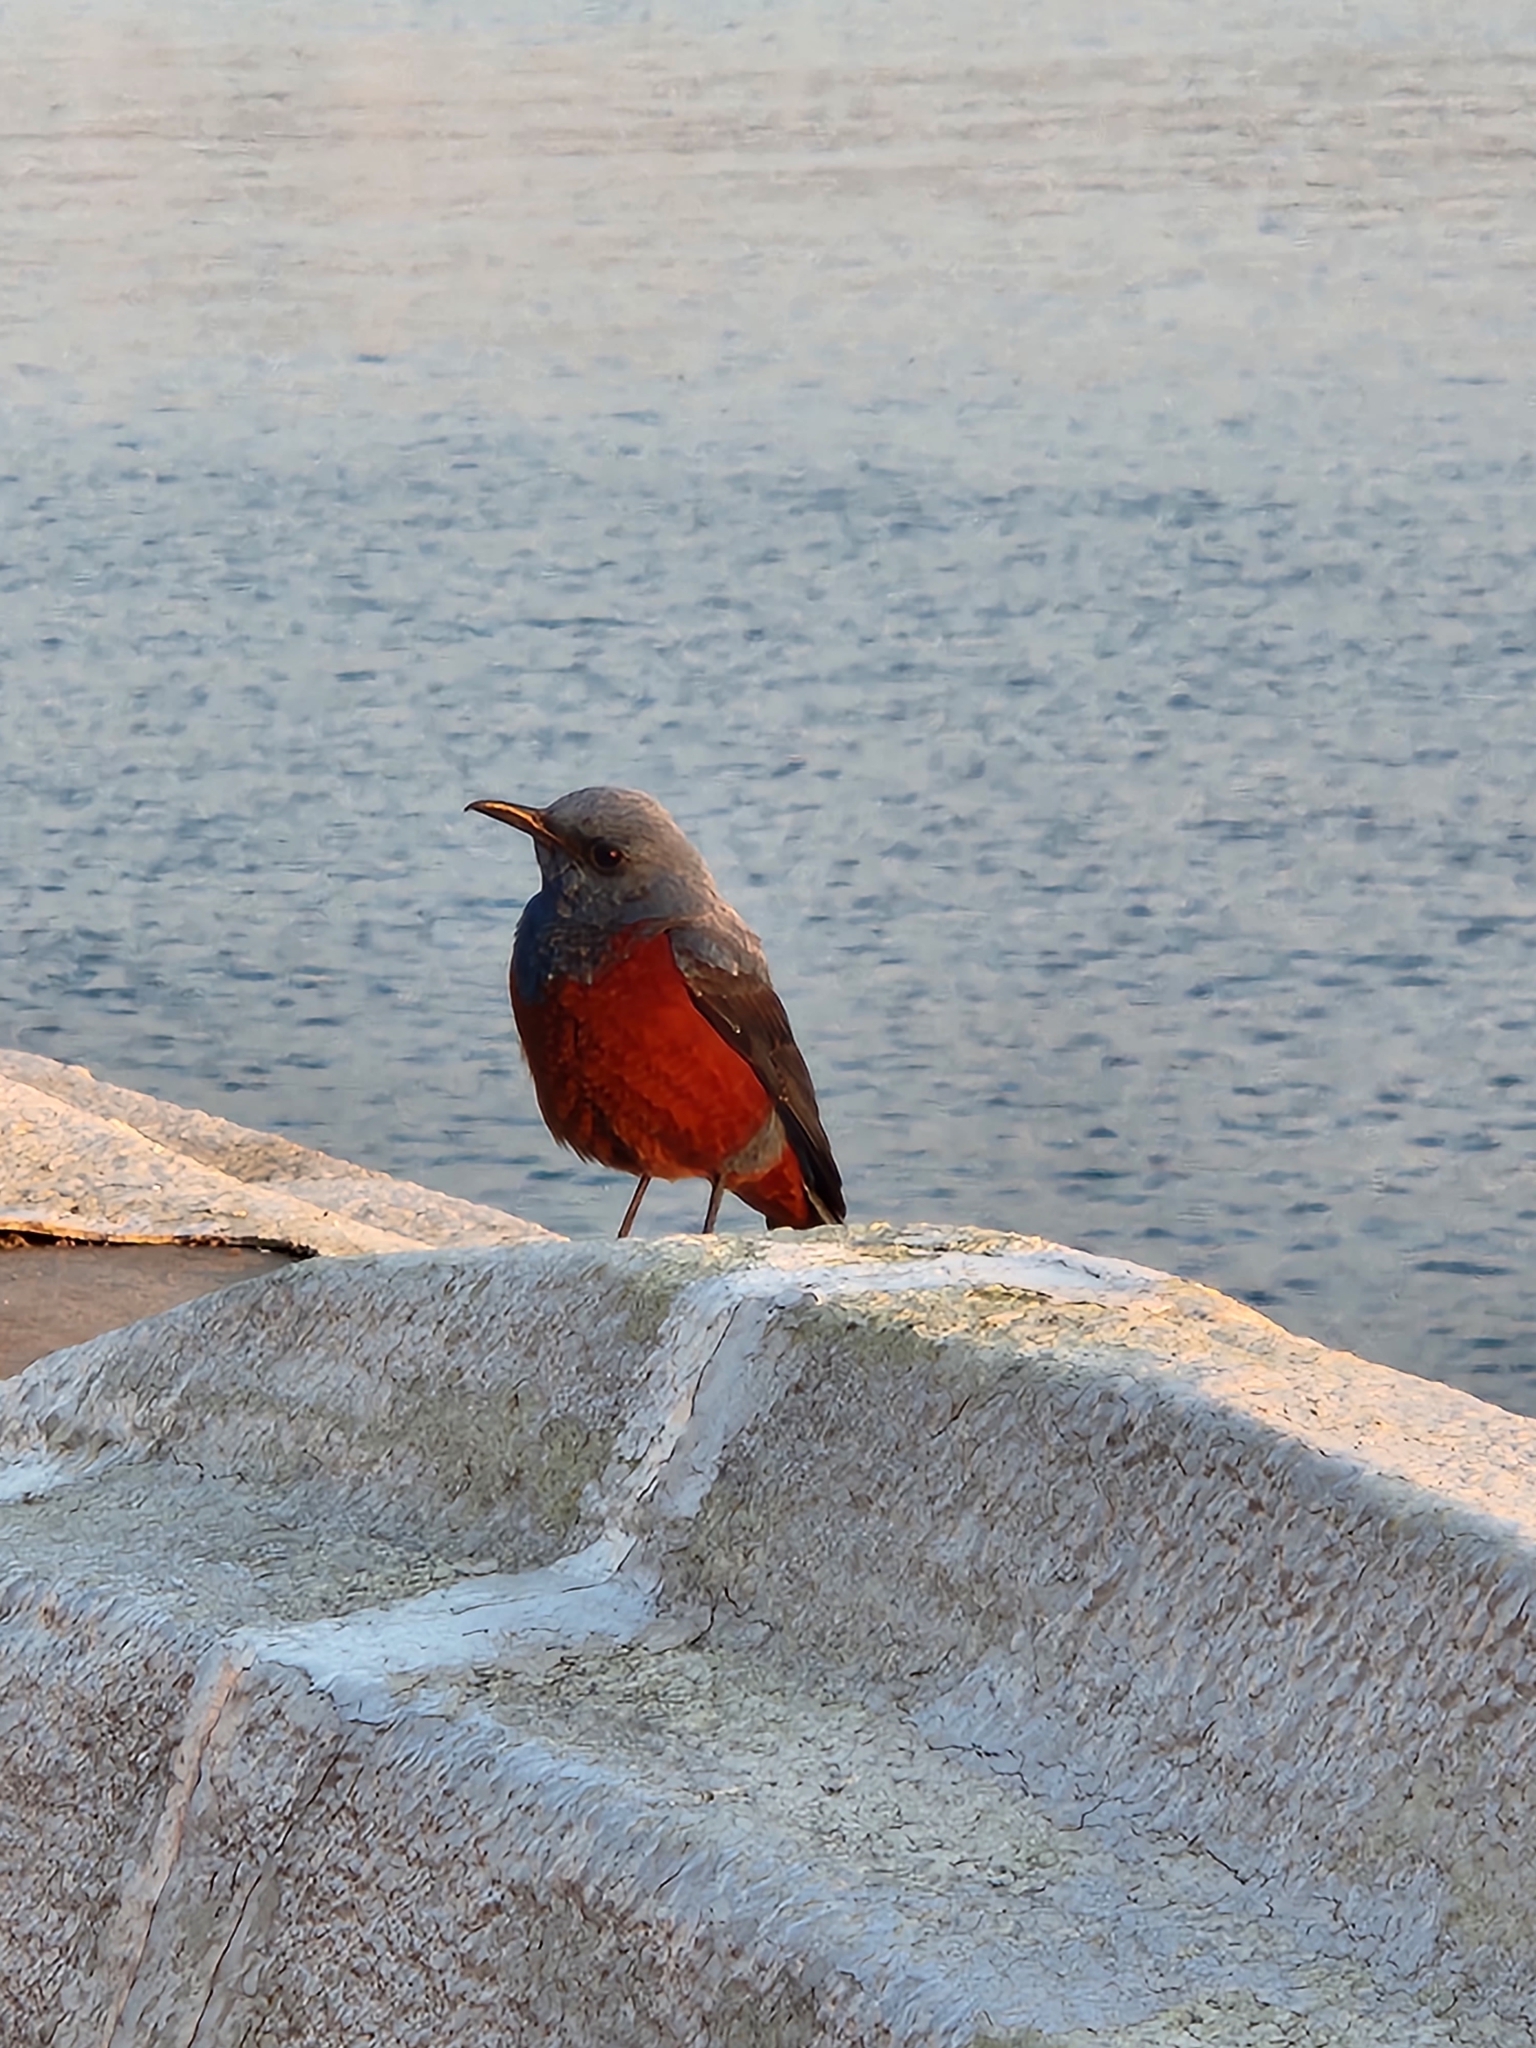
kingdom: Animalia
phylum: Chordata
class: Aves
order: Passeriformes
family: Muscicapidae
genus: Monticola
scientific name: Monticola solitarius
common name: Blue rock thrush
